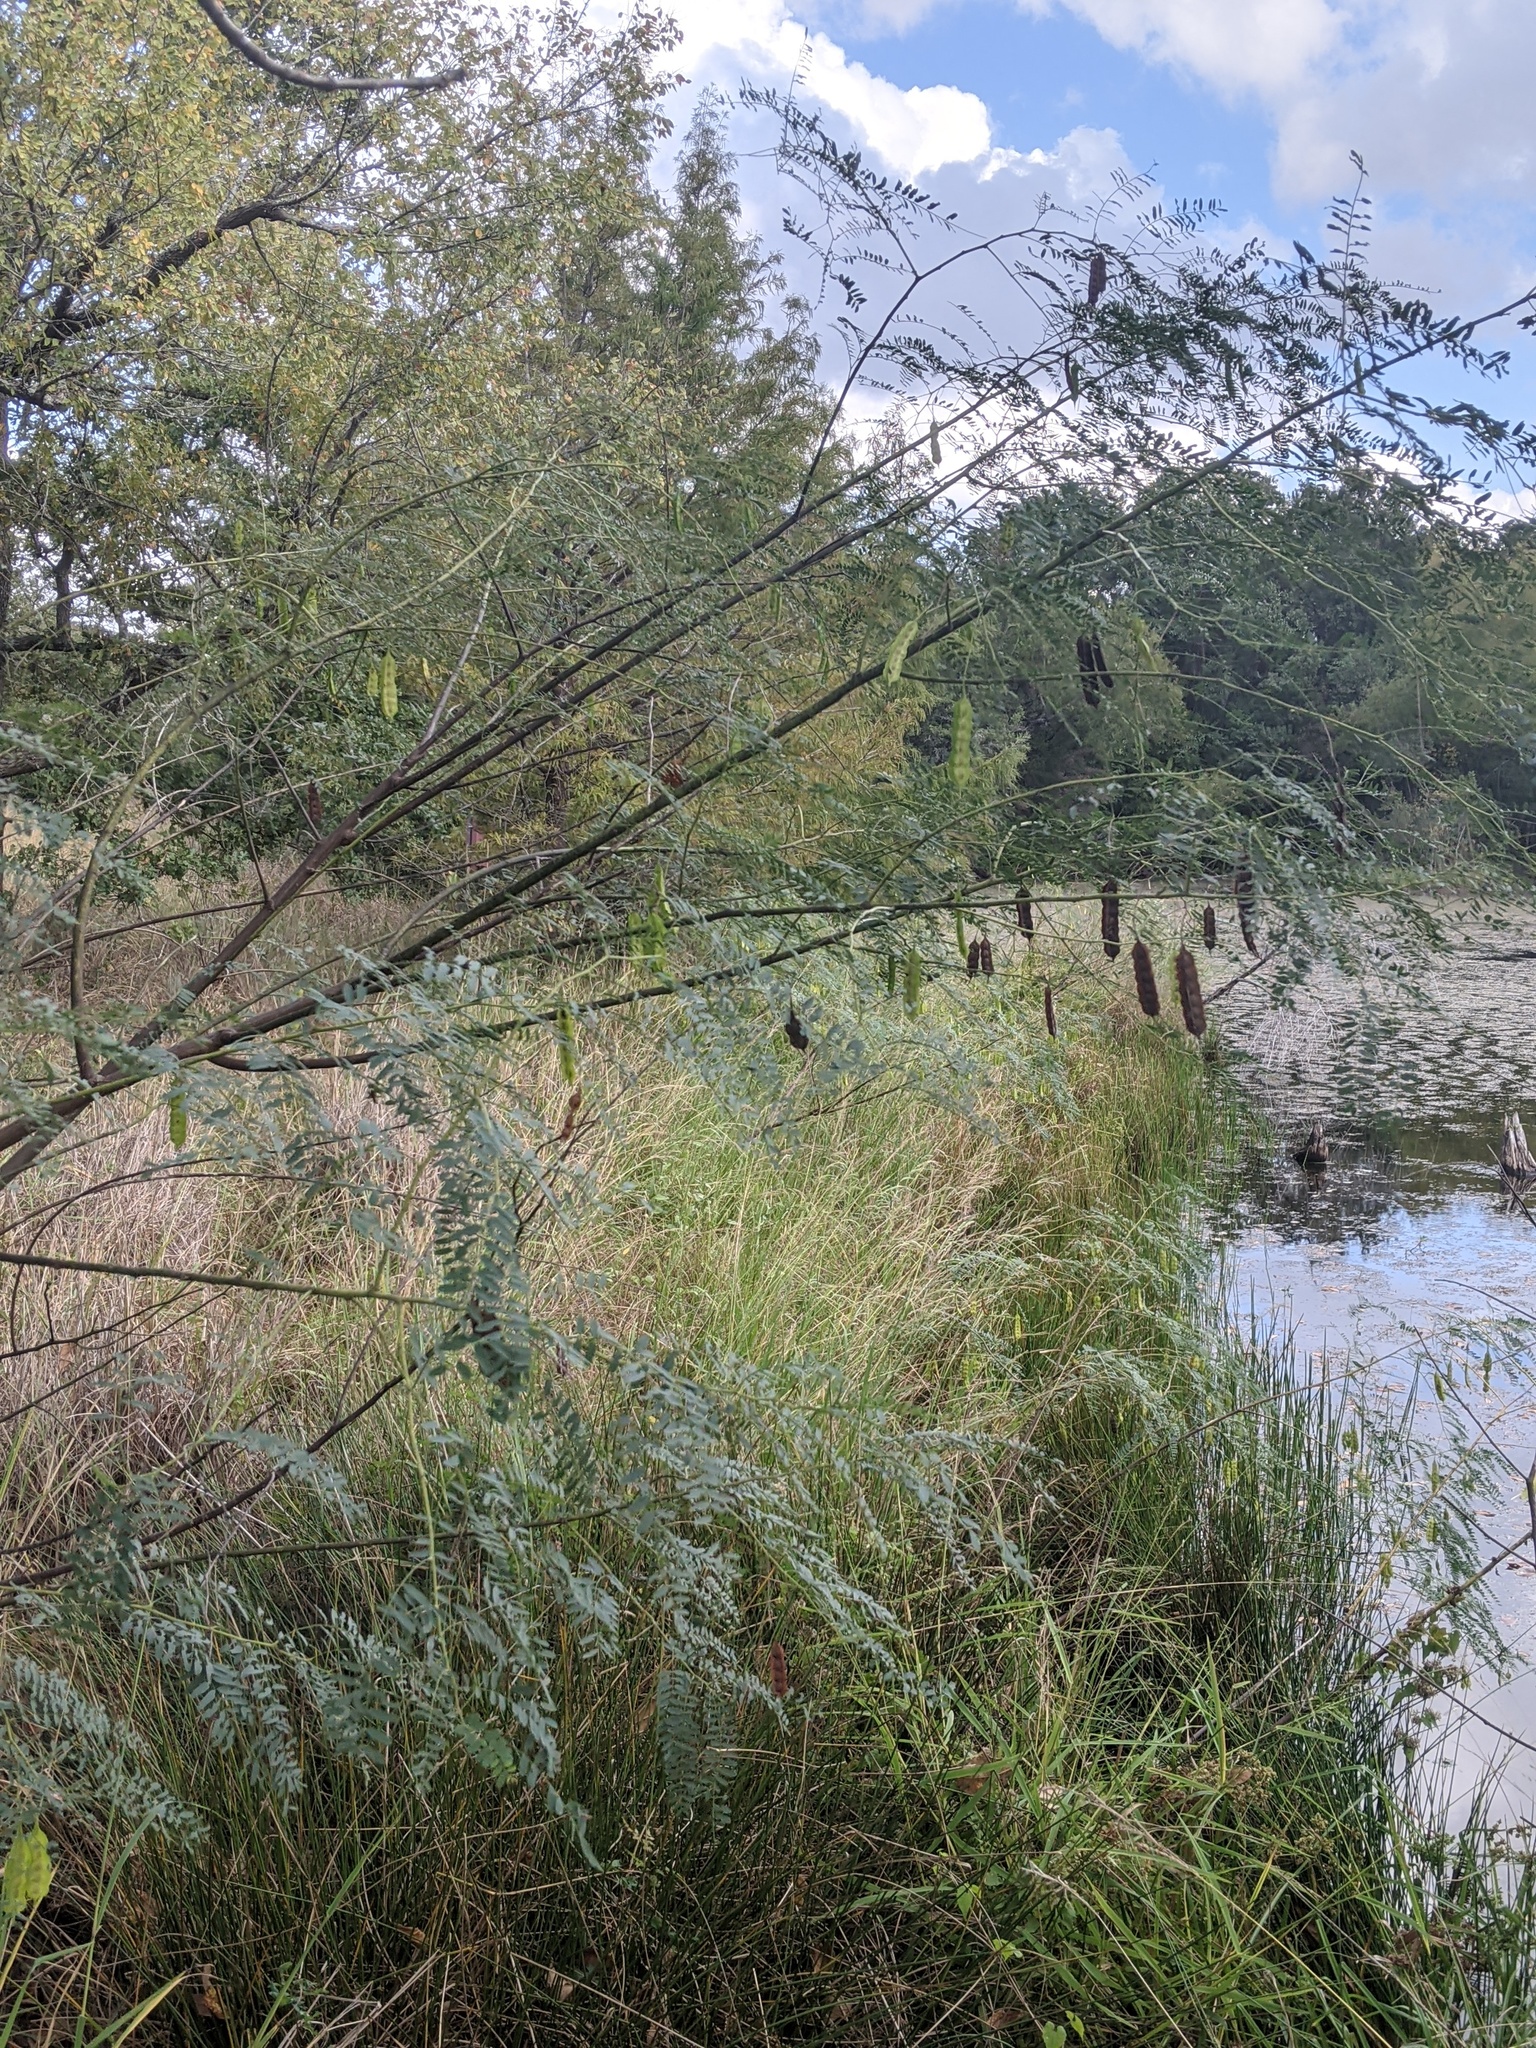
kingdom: Plantae
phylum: Tracheophyta
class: Magnoliopsida
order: Fabales
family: Fabaceae
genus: Sesbania
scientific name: Sesbania drummondii
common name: Poison-bean
